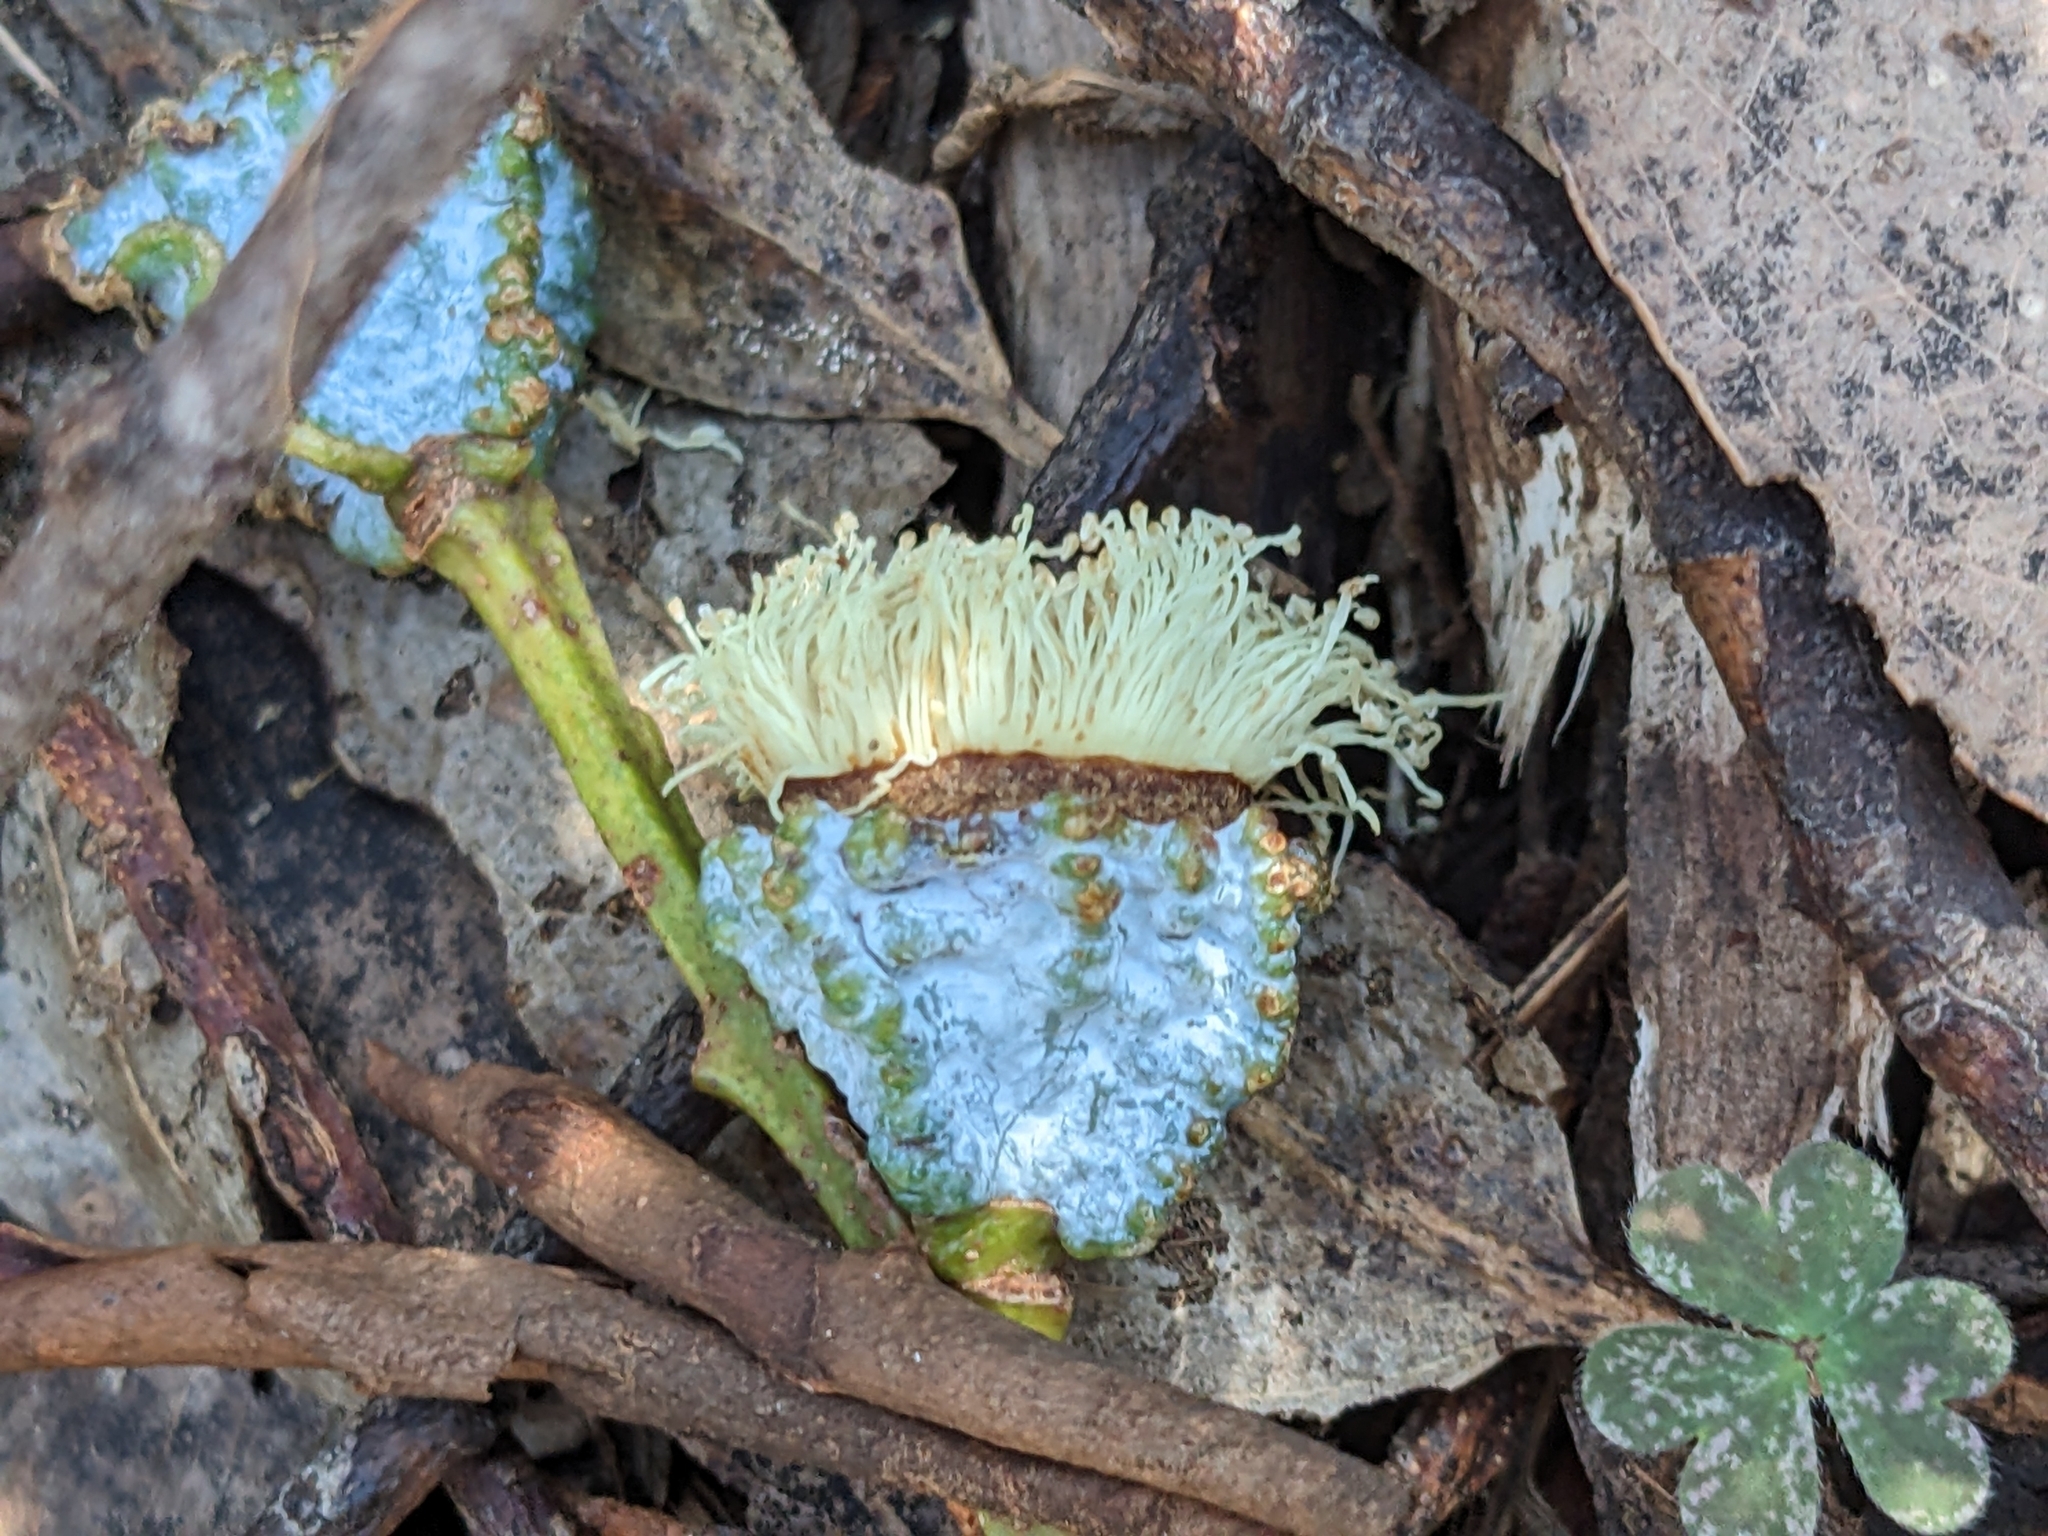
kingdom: Plantae
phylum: Tracheophyta
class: Magnoliopsida
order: Myrtales
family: Myrtaceae
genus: Eucalyptus
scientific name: Eucalyptus globulus
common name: Southern blue-gum
